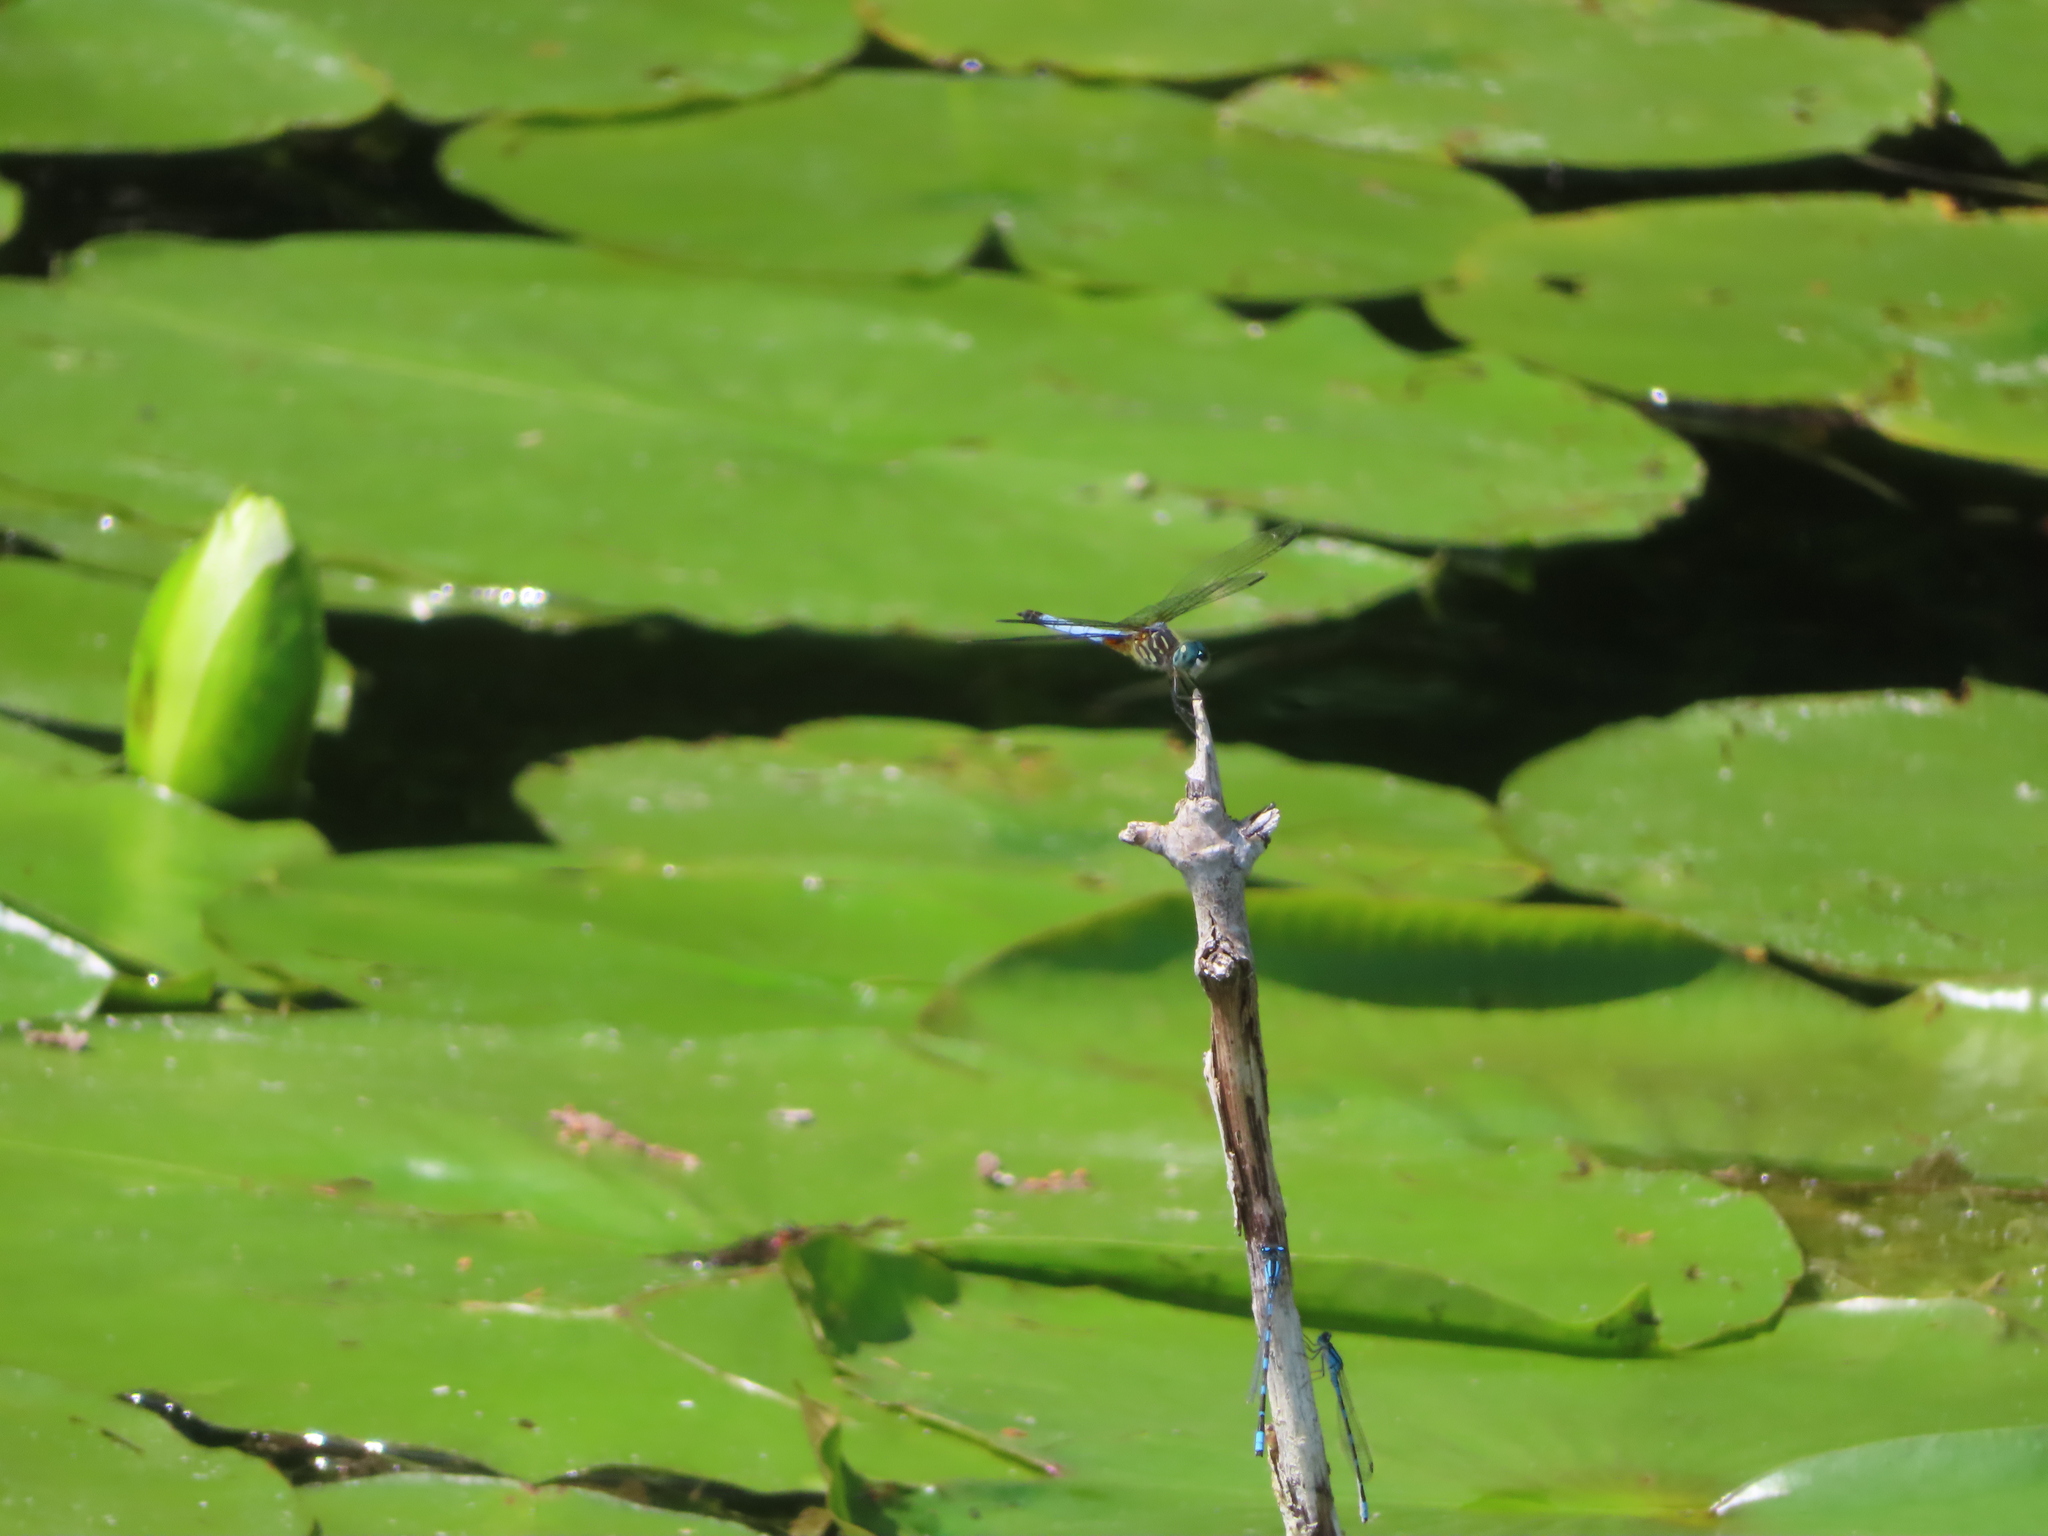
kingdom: Animalia
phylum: Arthropoda
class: Insecta
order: Odonata
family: Libellulidae
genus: Pachydiplax
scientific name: Pachydiplax longipennis
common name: Blue dasher
